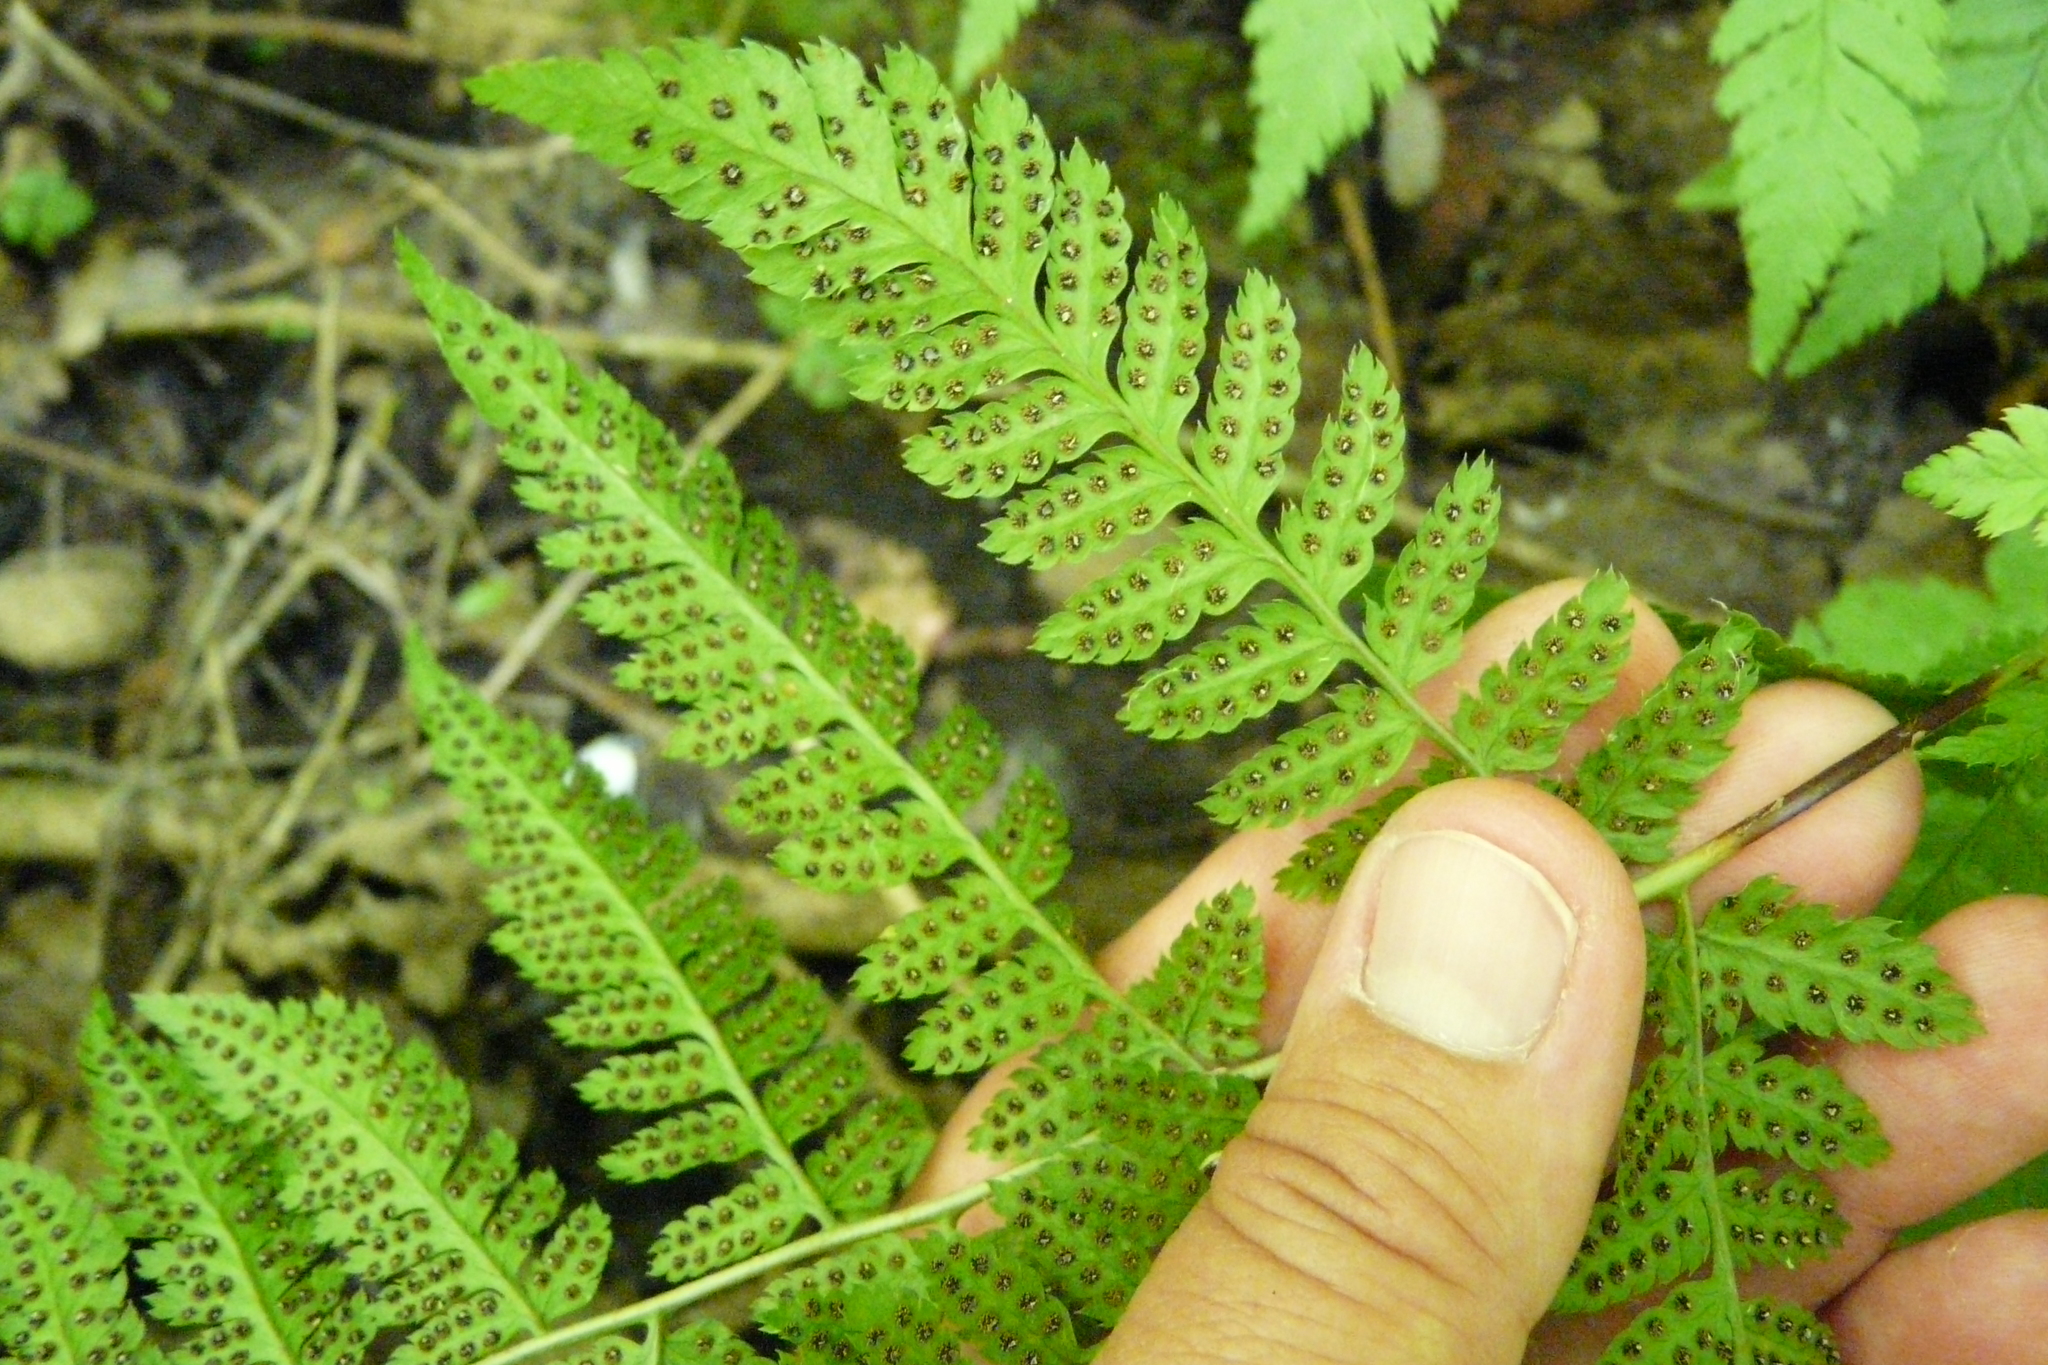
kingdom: Plantae
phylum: Tracheophyta
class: Polypodiopsida
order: Polypodiales
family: Dryopteridaceae
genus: Dryopteris
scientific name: Dryopteris carthusiana
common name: Narrow buckler-fern
